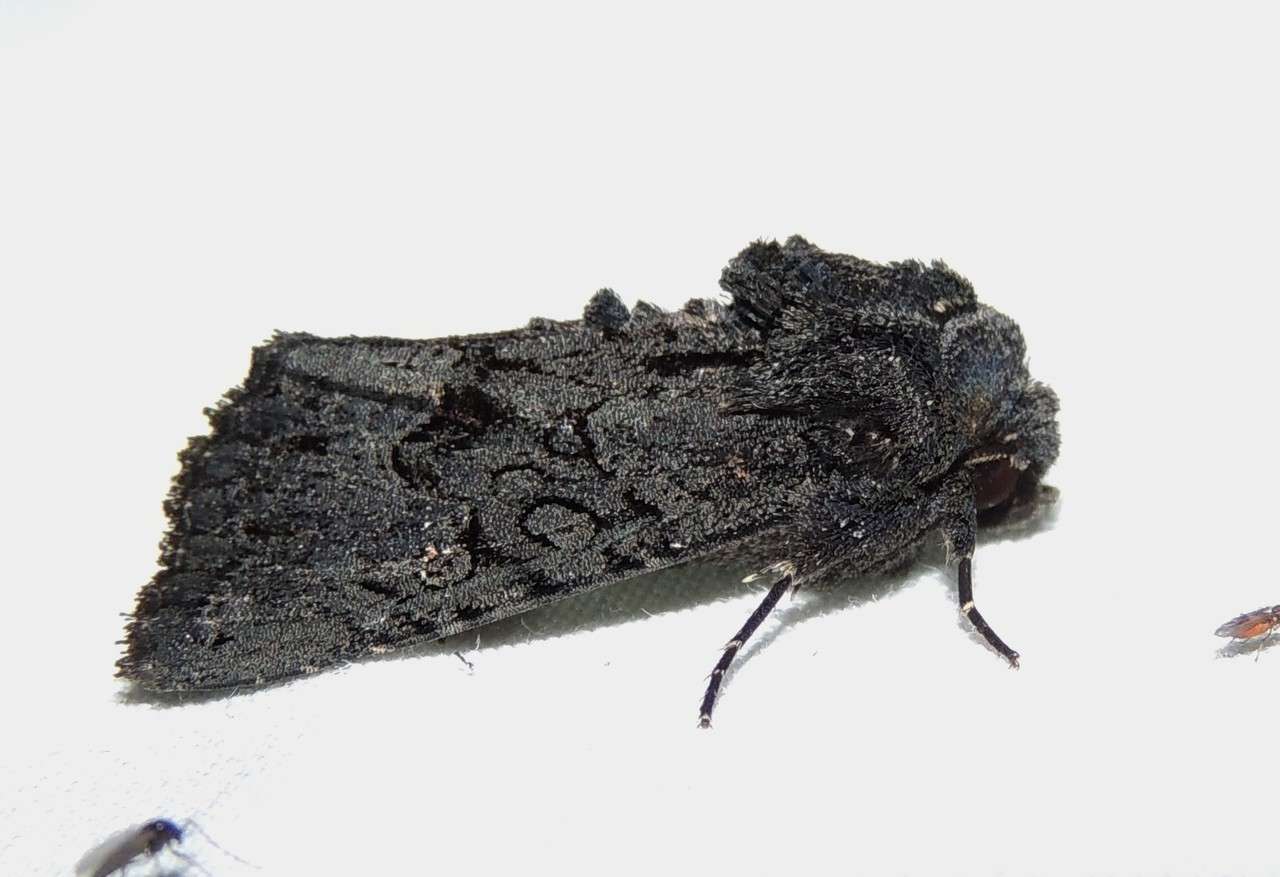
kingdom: Animalia
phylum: Arthropoda
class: Insecta
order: Lepidoptera
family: Noctuidae
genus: Neumichtis
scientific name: Neumichtis nigerrima
